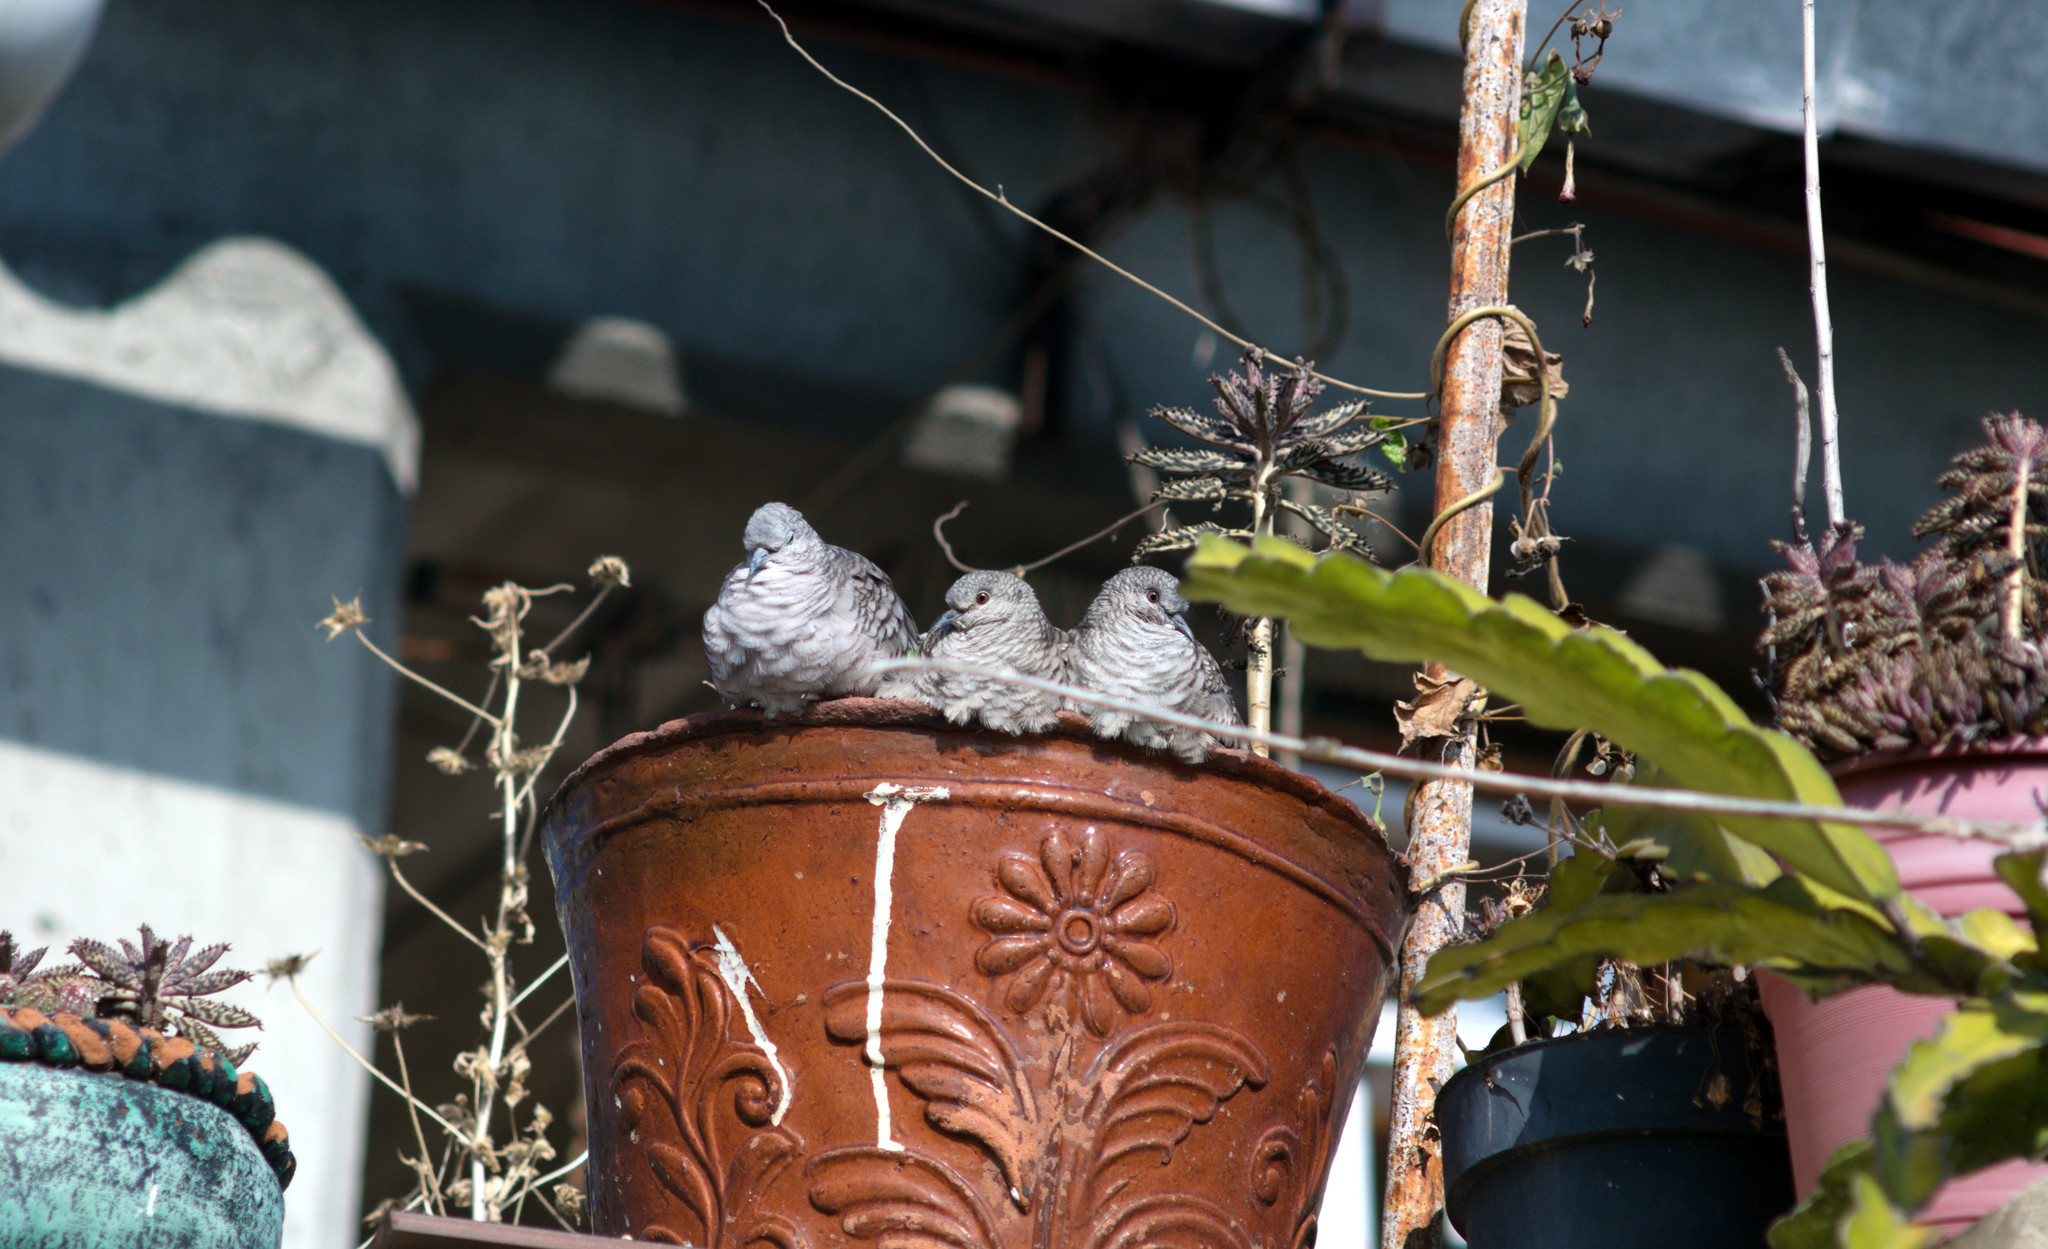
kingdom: Animalia
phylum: Chordata
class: Aves
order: Columbiformes
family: Columbidae
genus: Columbina
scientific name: Columbina inca
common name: Inca dove
